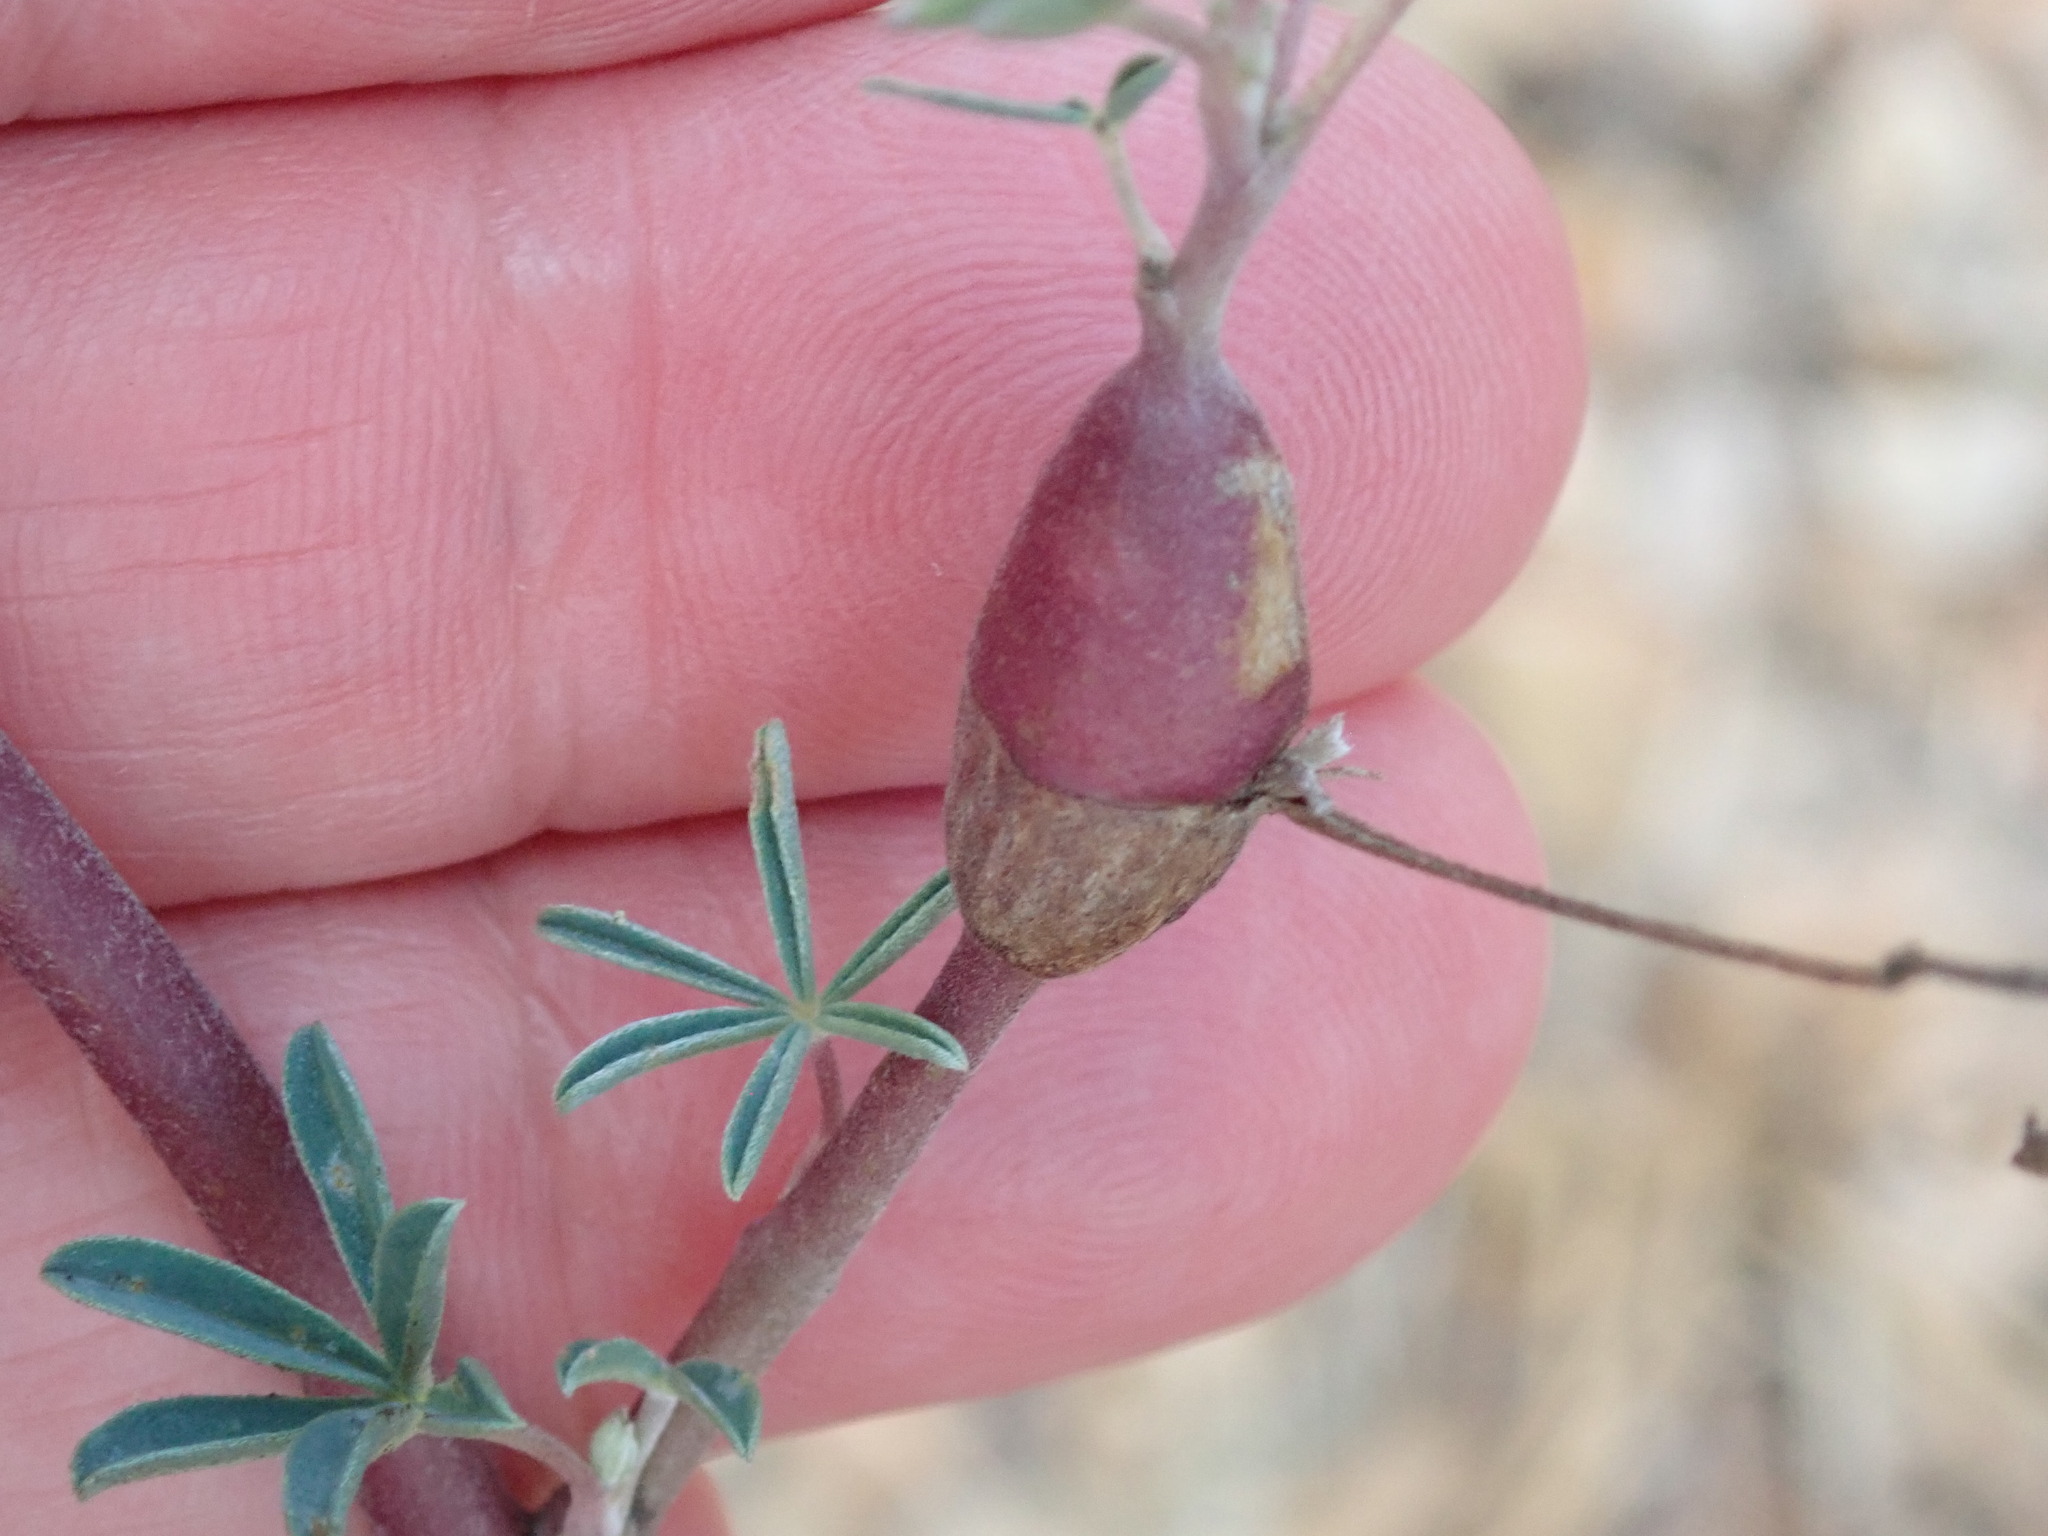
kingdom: Animalia
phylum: Arthropoda
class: Insecta
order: Diptera
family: Cecidomyiidae
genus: Neolasioptera
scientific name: Neolasioptera lupini
